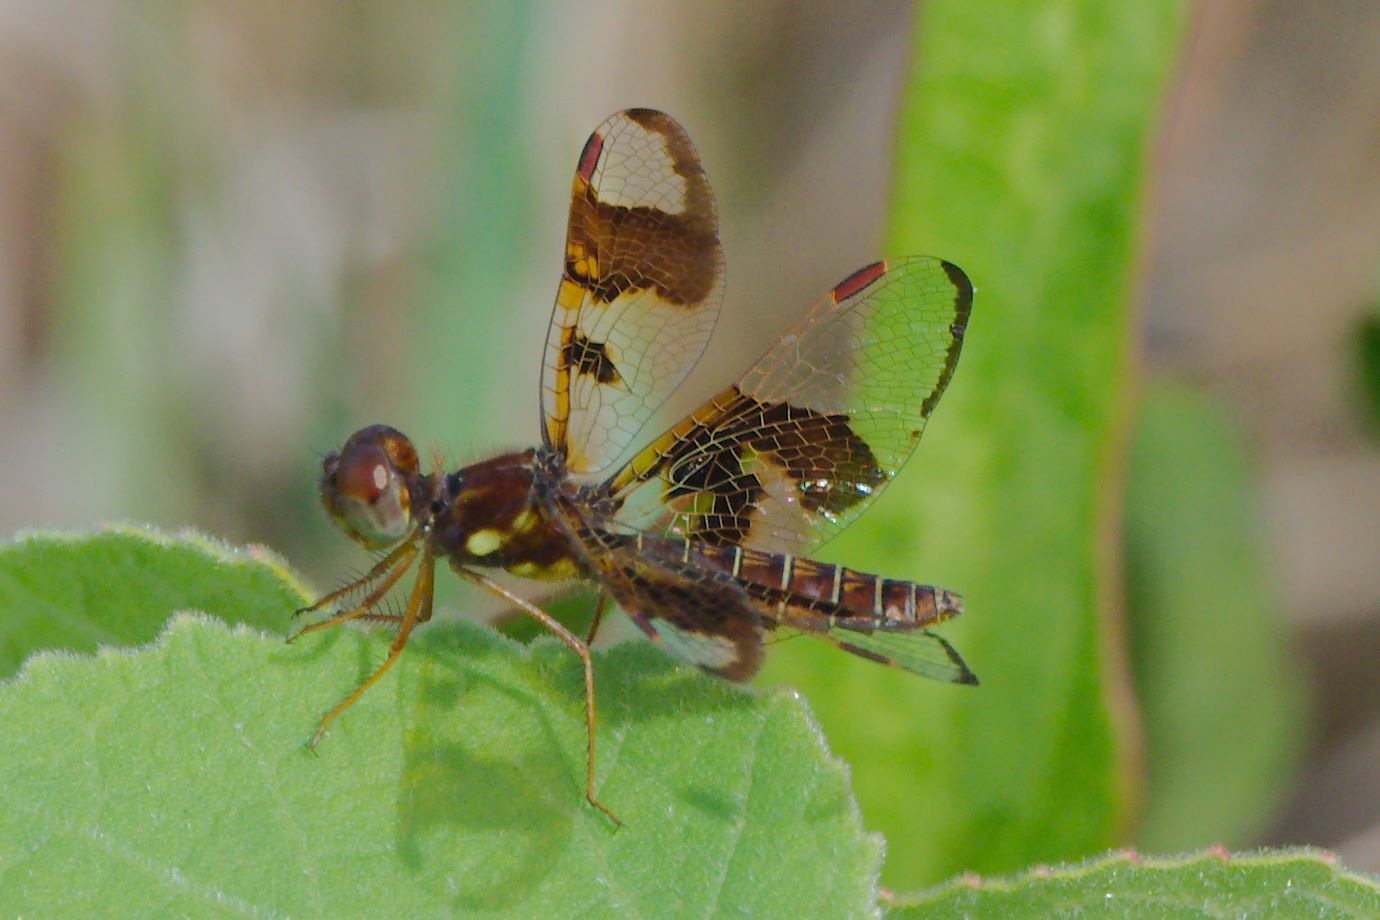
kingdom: Animalia
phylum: Arthropoda
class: Insecta
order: Odonata
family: Libellulidae
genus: Perithemis
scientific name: Perithemis tenera
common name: Eastern amberwing
